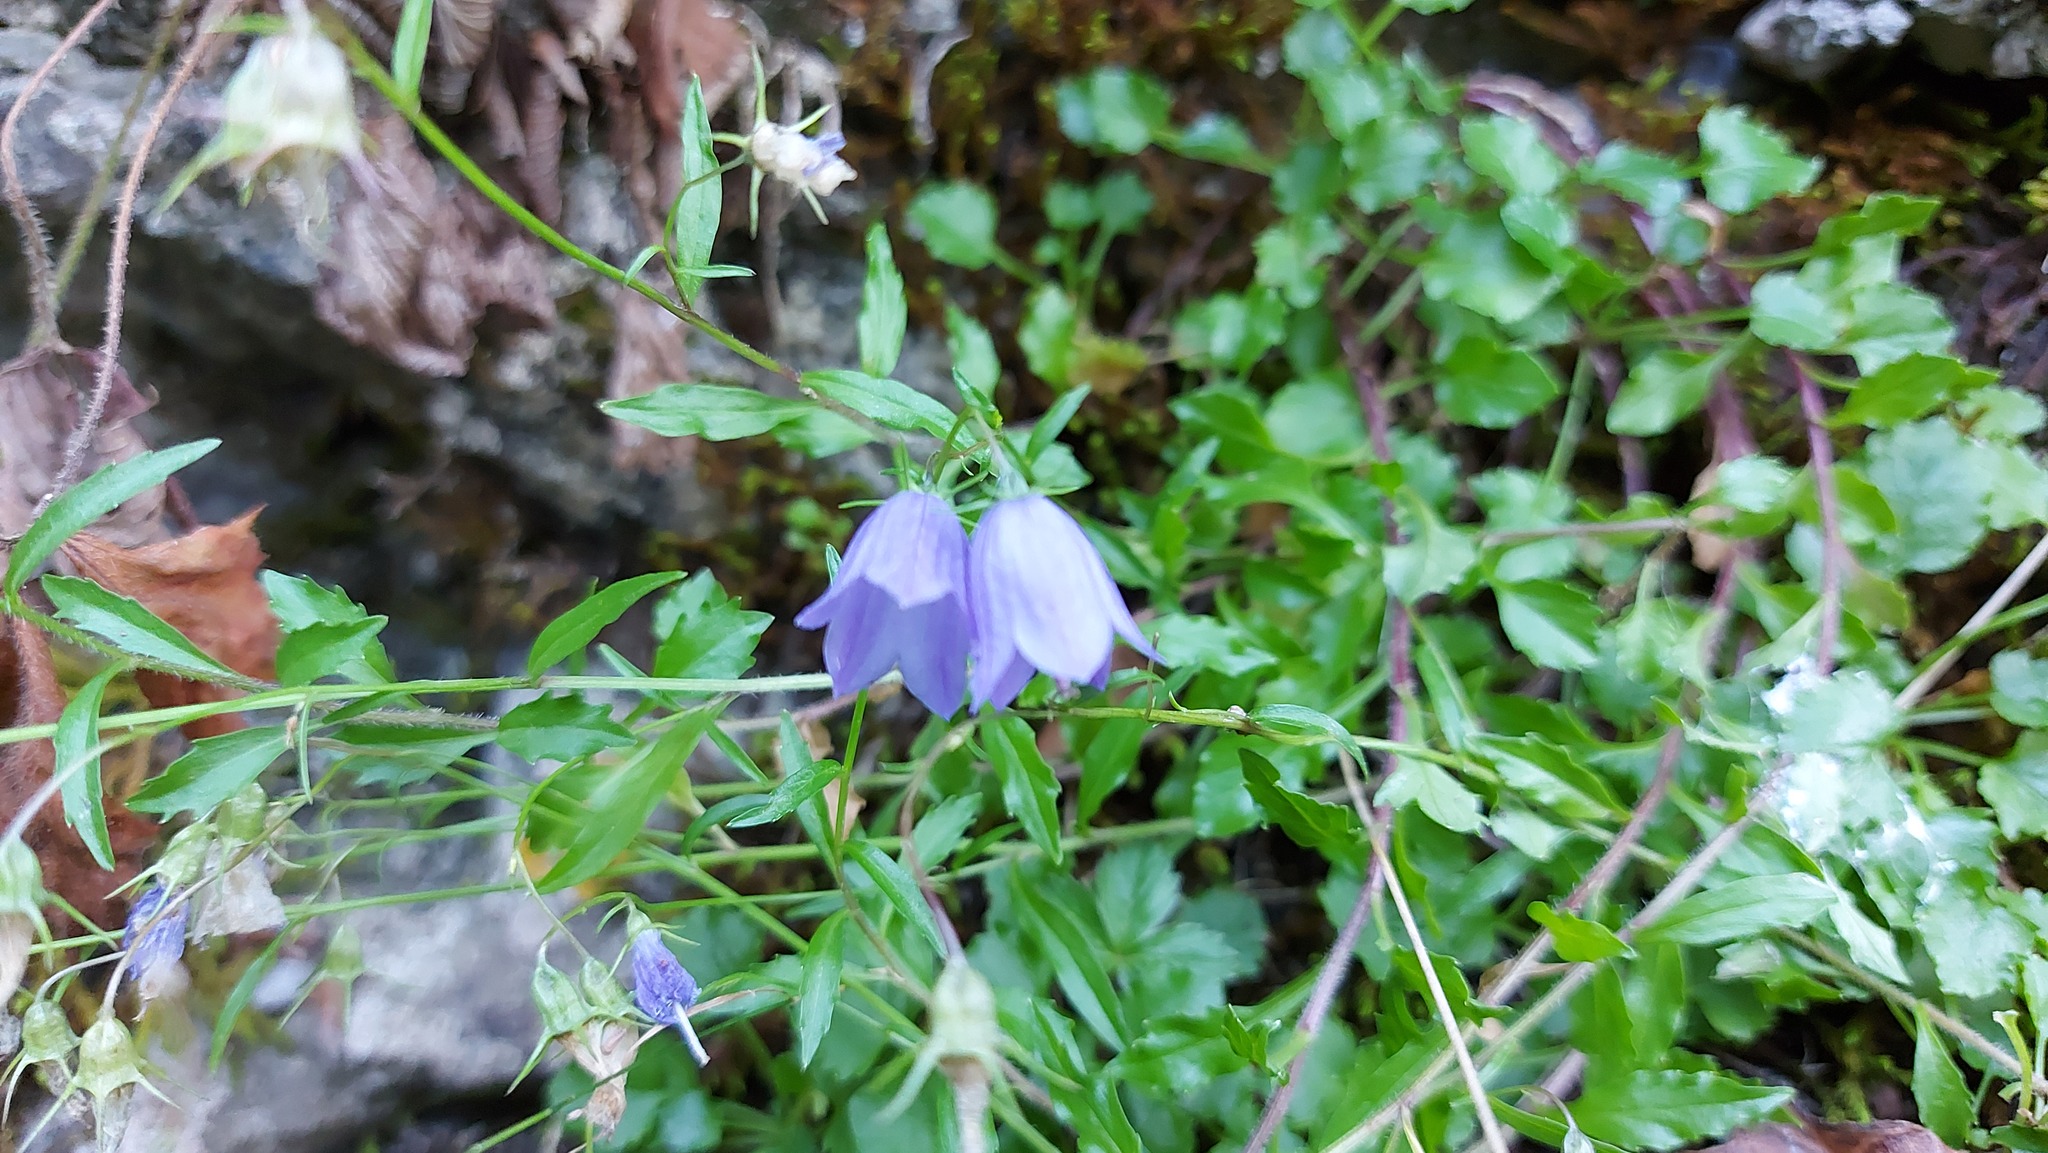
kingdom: Plantae
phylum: Tracheophyta
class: Magnoliopsida
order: Asterales
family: Campanulaceae
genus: Campanula
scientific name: Campanula rotundifolia
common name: Harebell
